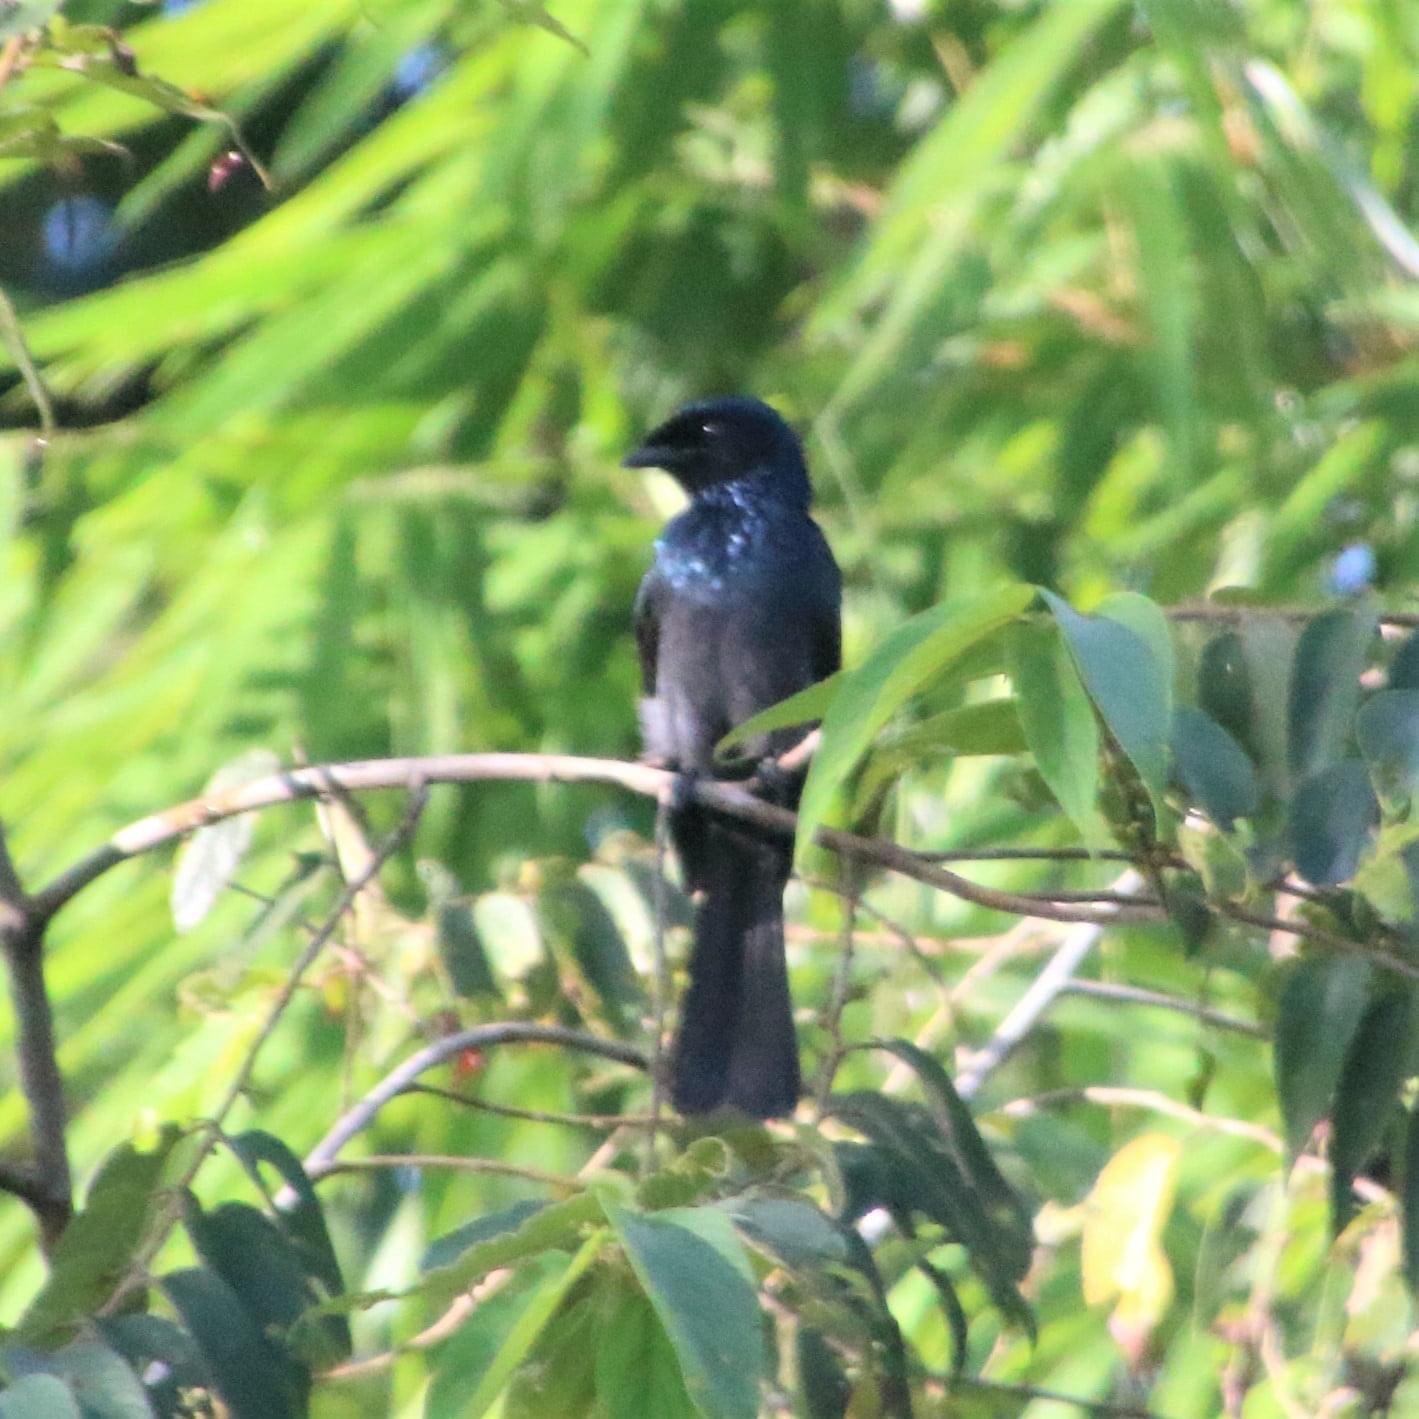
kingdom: Animalia
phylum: Chordata
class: Aves
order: Passeriformes
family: Dicruridae
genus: Dicrurus
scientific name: Dicrurus remifer
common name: Lesser racket-tailed drongo
